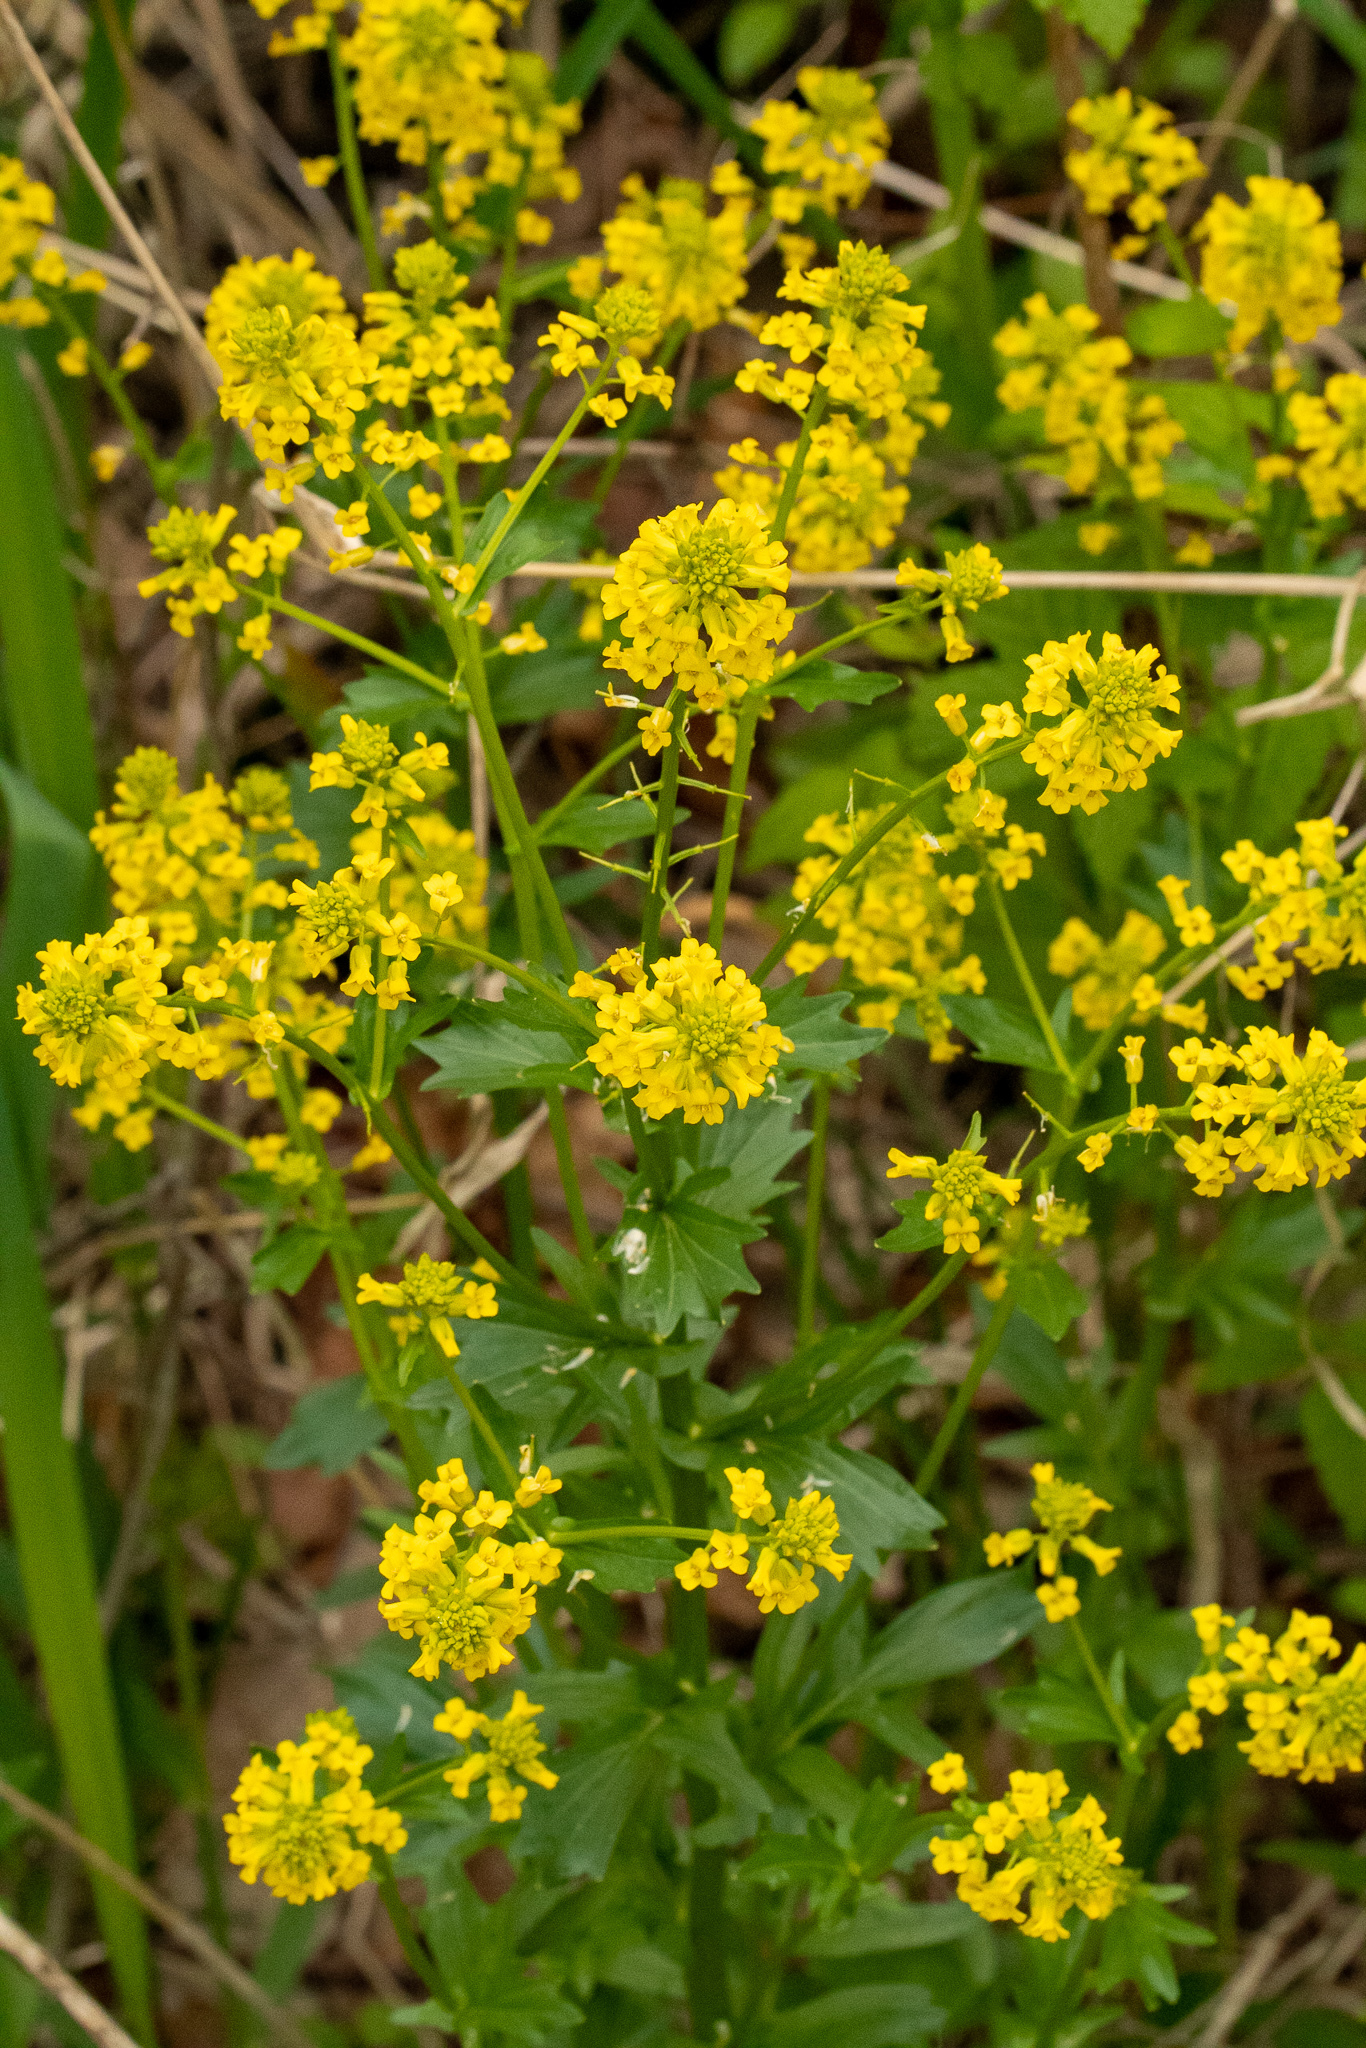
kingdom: Plantae
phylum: Tracheophyta
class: Magnoliopsida
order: Brassicales
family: Brassicaceae
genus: Barbarea
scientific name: Barbarea vulgaris
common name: Cressy-greens
